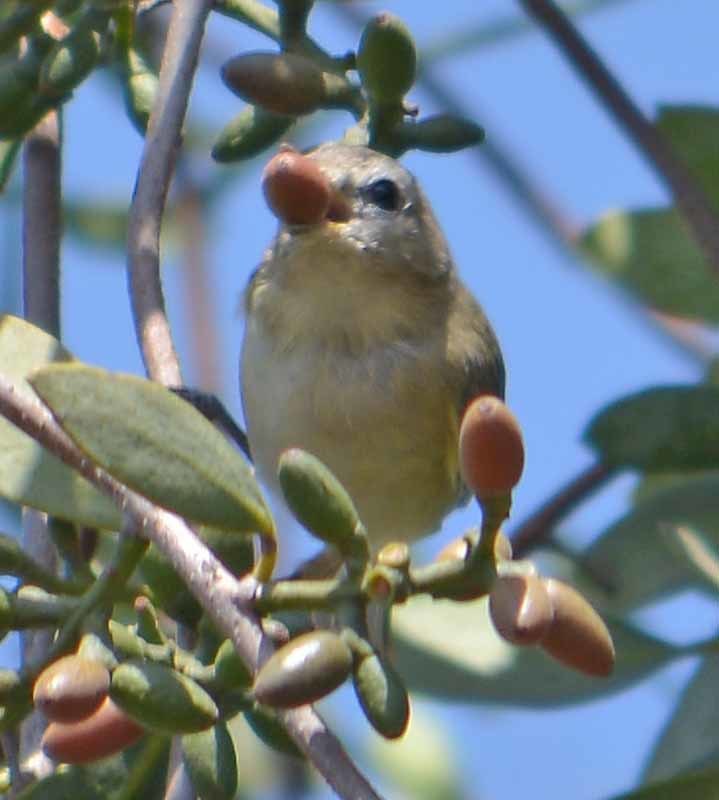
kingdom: Animalia
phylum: Chordata
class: Aves
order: Passeriformes
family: Vireonidae
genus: Vireo
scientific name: Vireo gilvus
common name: Warbling vireo
